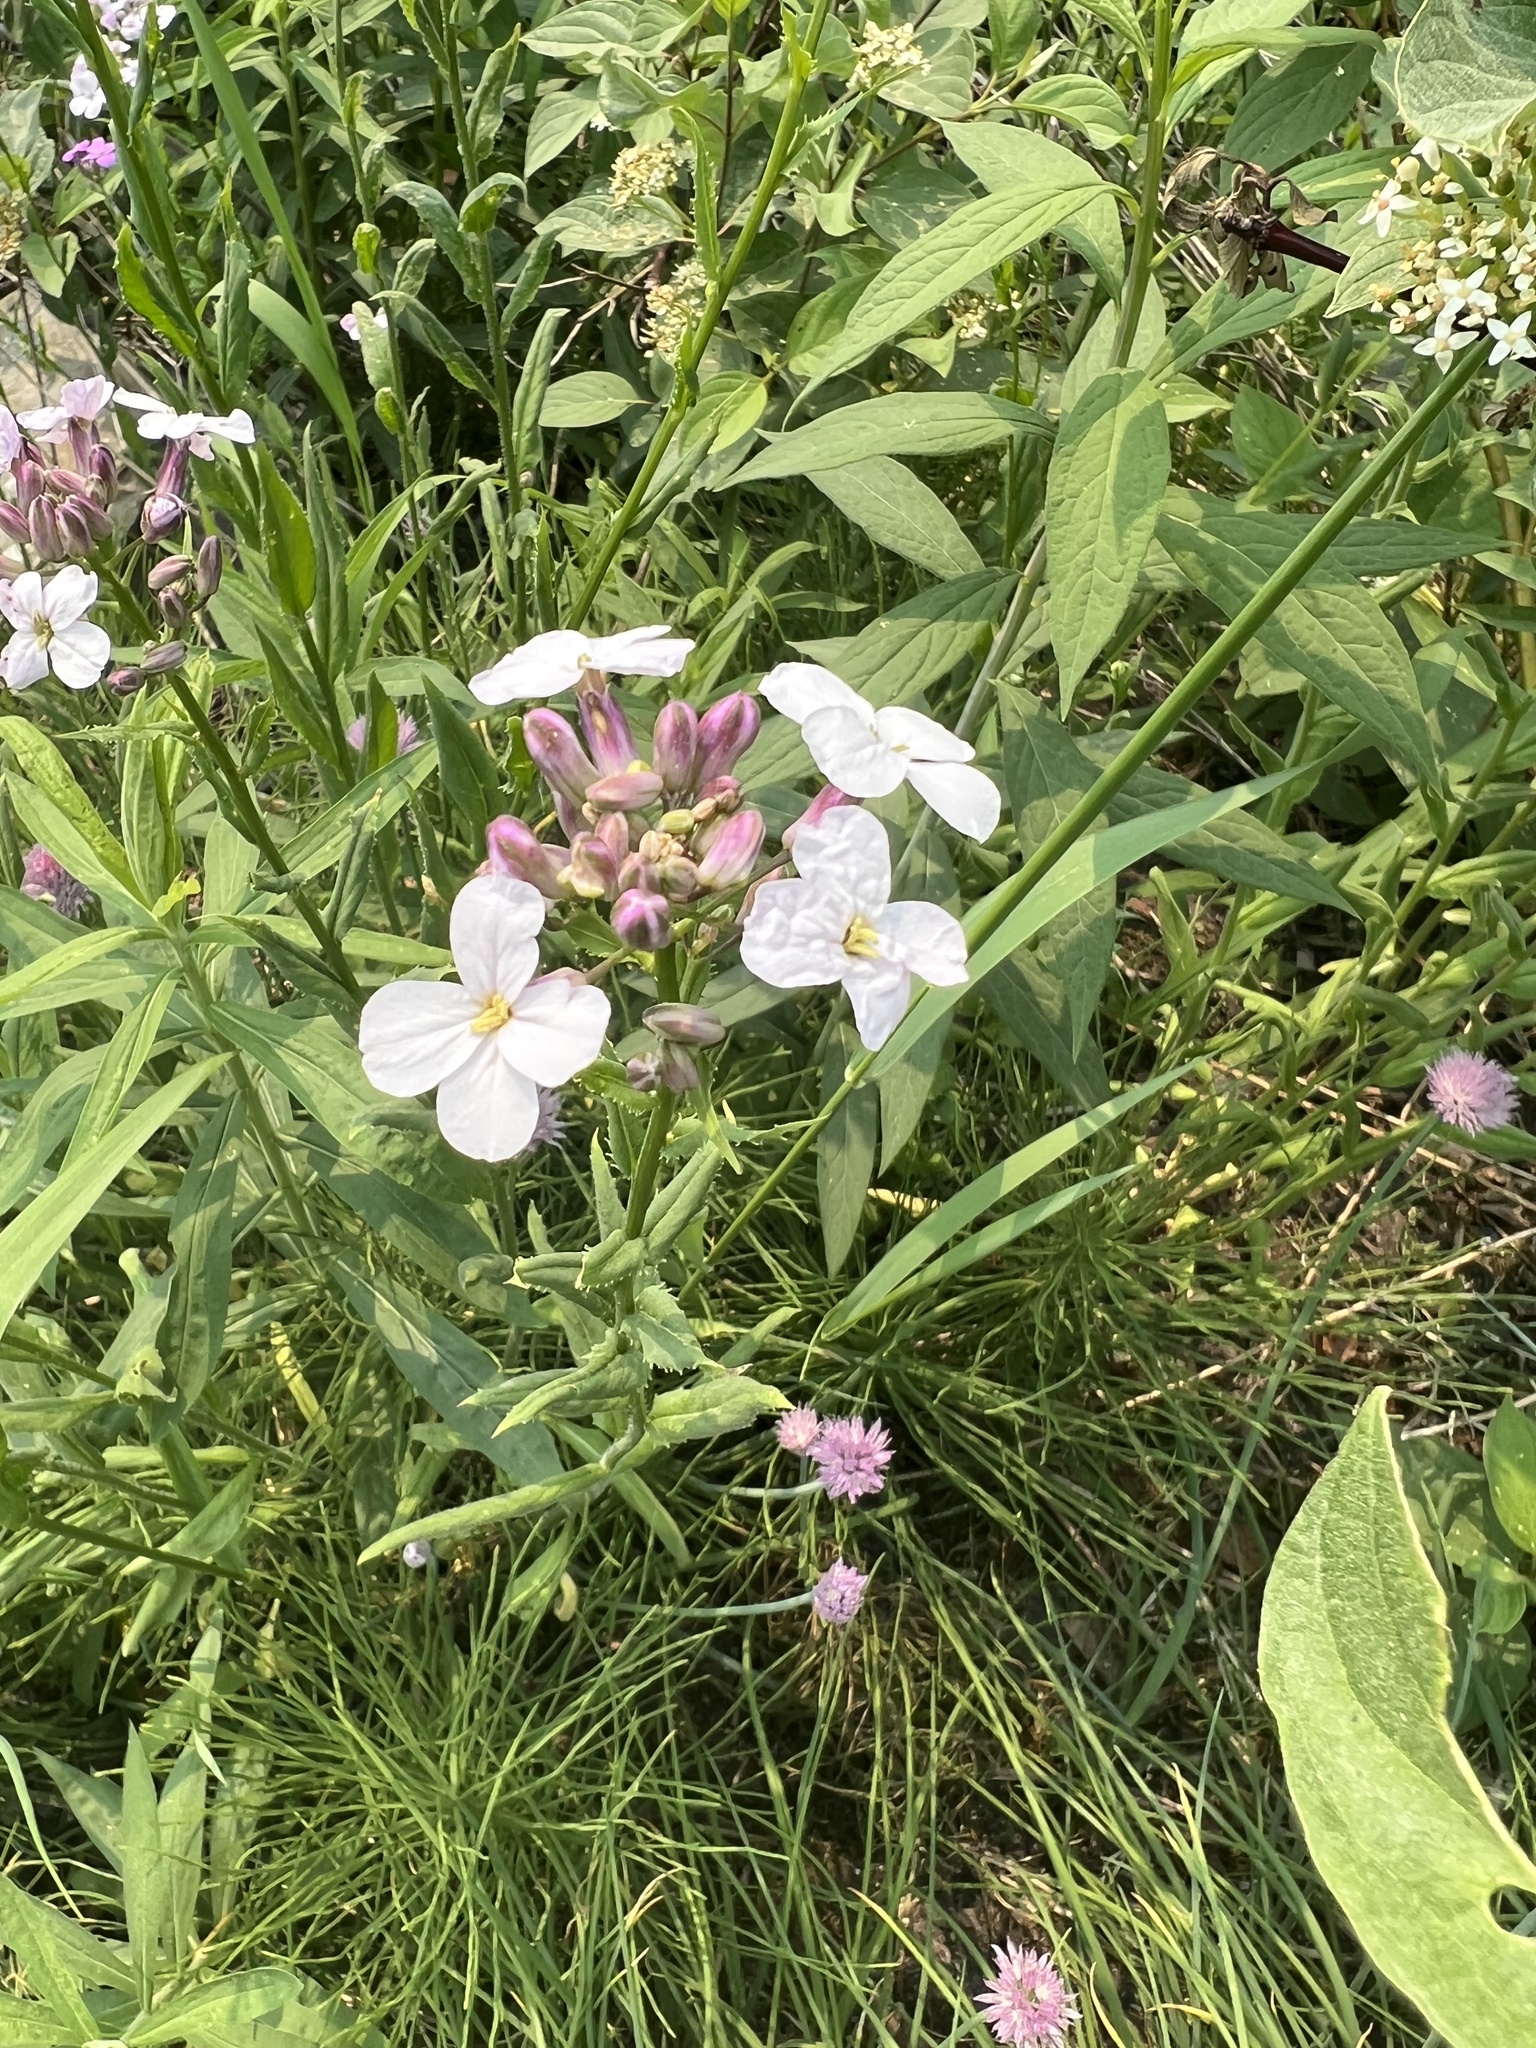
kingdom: Plantae
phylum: Tracheophyta
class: Magnoliopsida
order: Brassicales
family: Brassicaceae
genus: Hesperis
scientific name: Hesperis matronalis
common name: Dame's-violet
